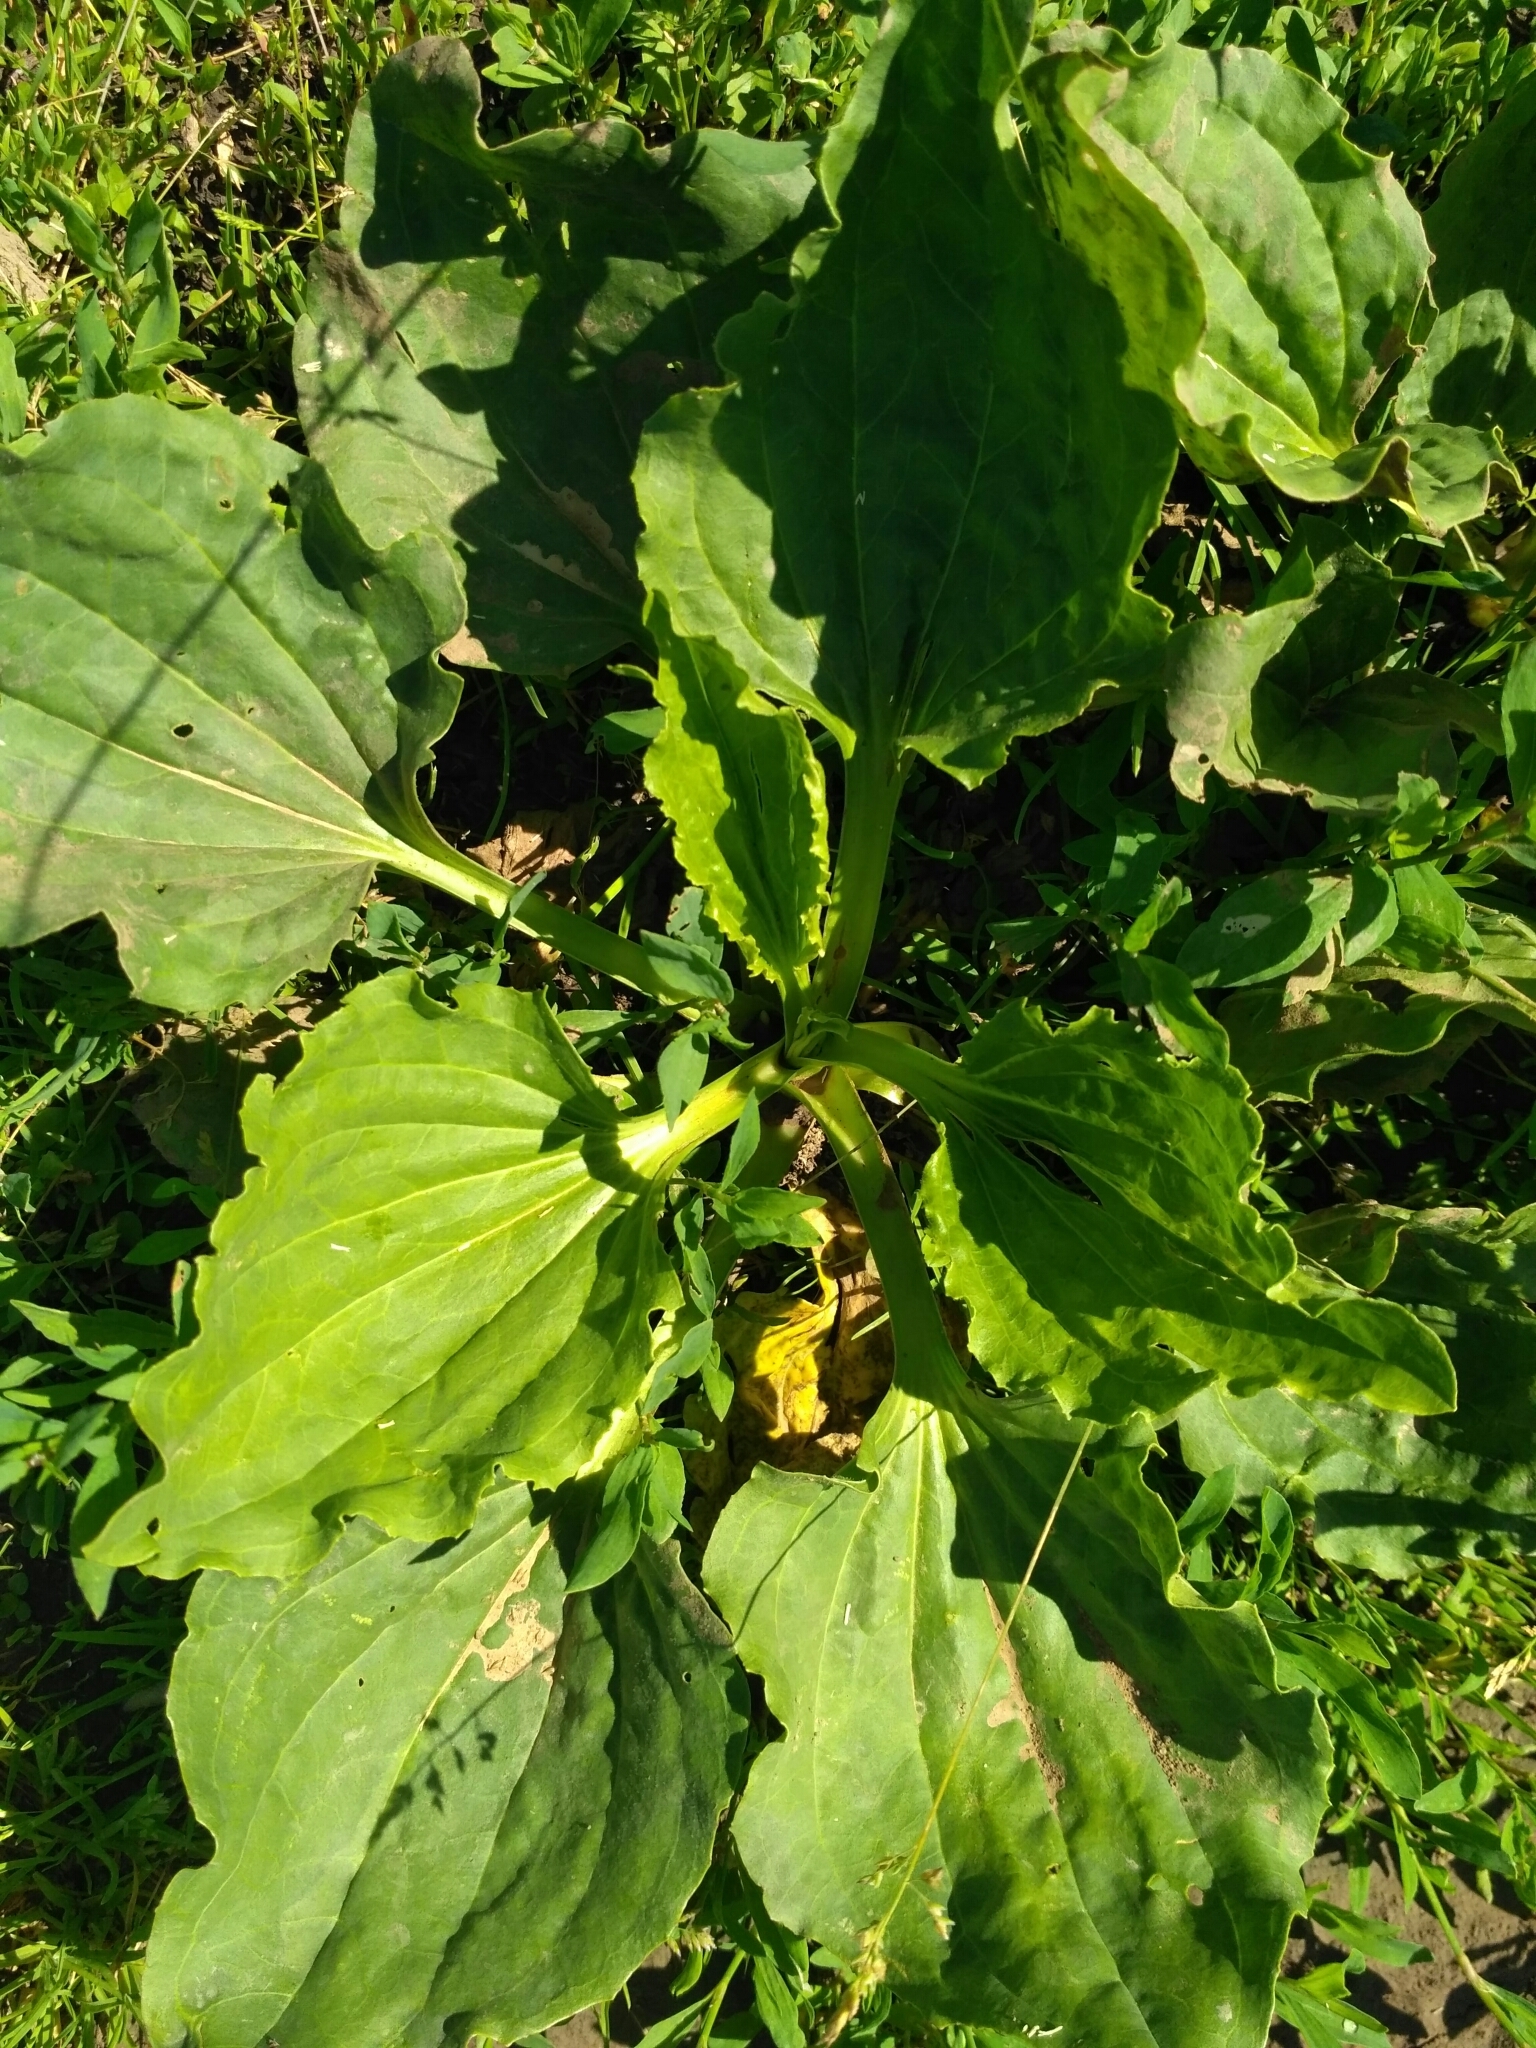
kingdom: Plantae
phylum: Tracheophyta
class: Magnoliopsida
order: Lamiales
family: Plantaginaceae
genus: Plantago
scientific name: Plantago major
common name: Common plantain
